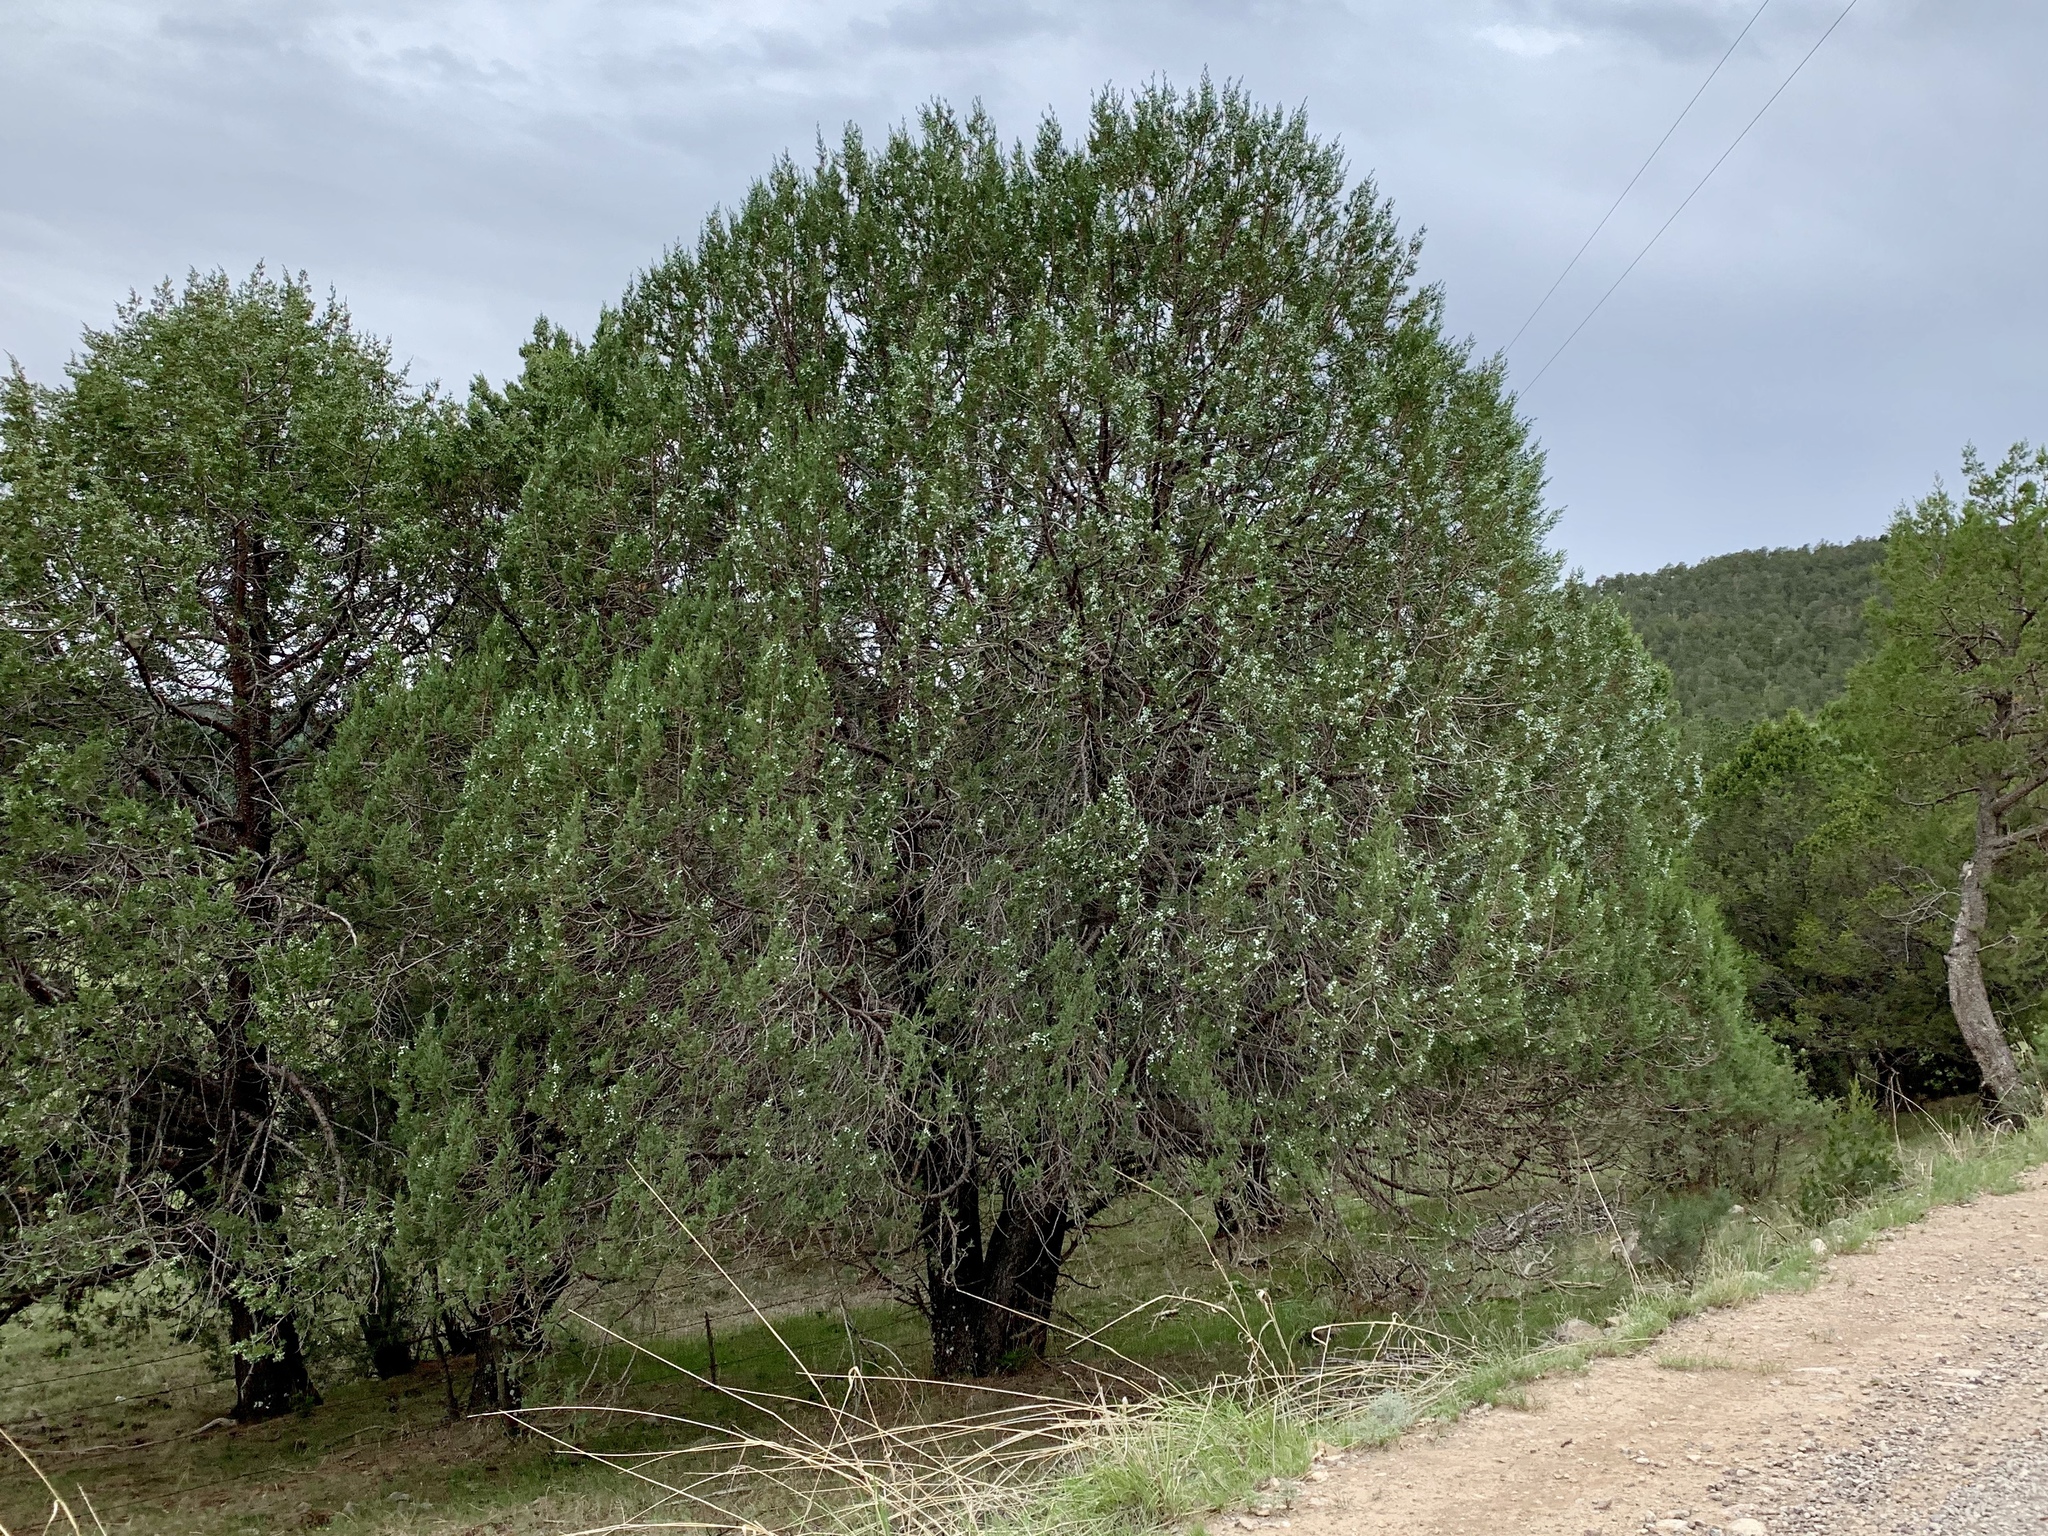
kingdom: Plantae
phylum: Tracheophyta
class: Pinopsida
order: Pinales
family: Cupressaceae
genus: Juniperus
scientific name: Juniperus deppeana
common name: Alligator juniper
